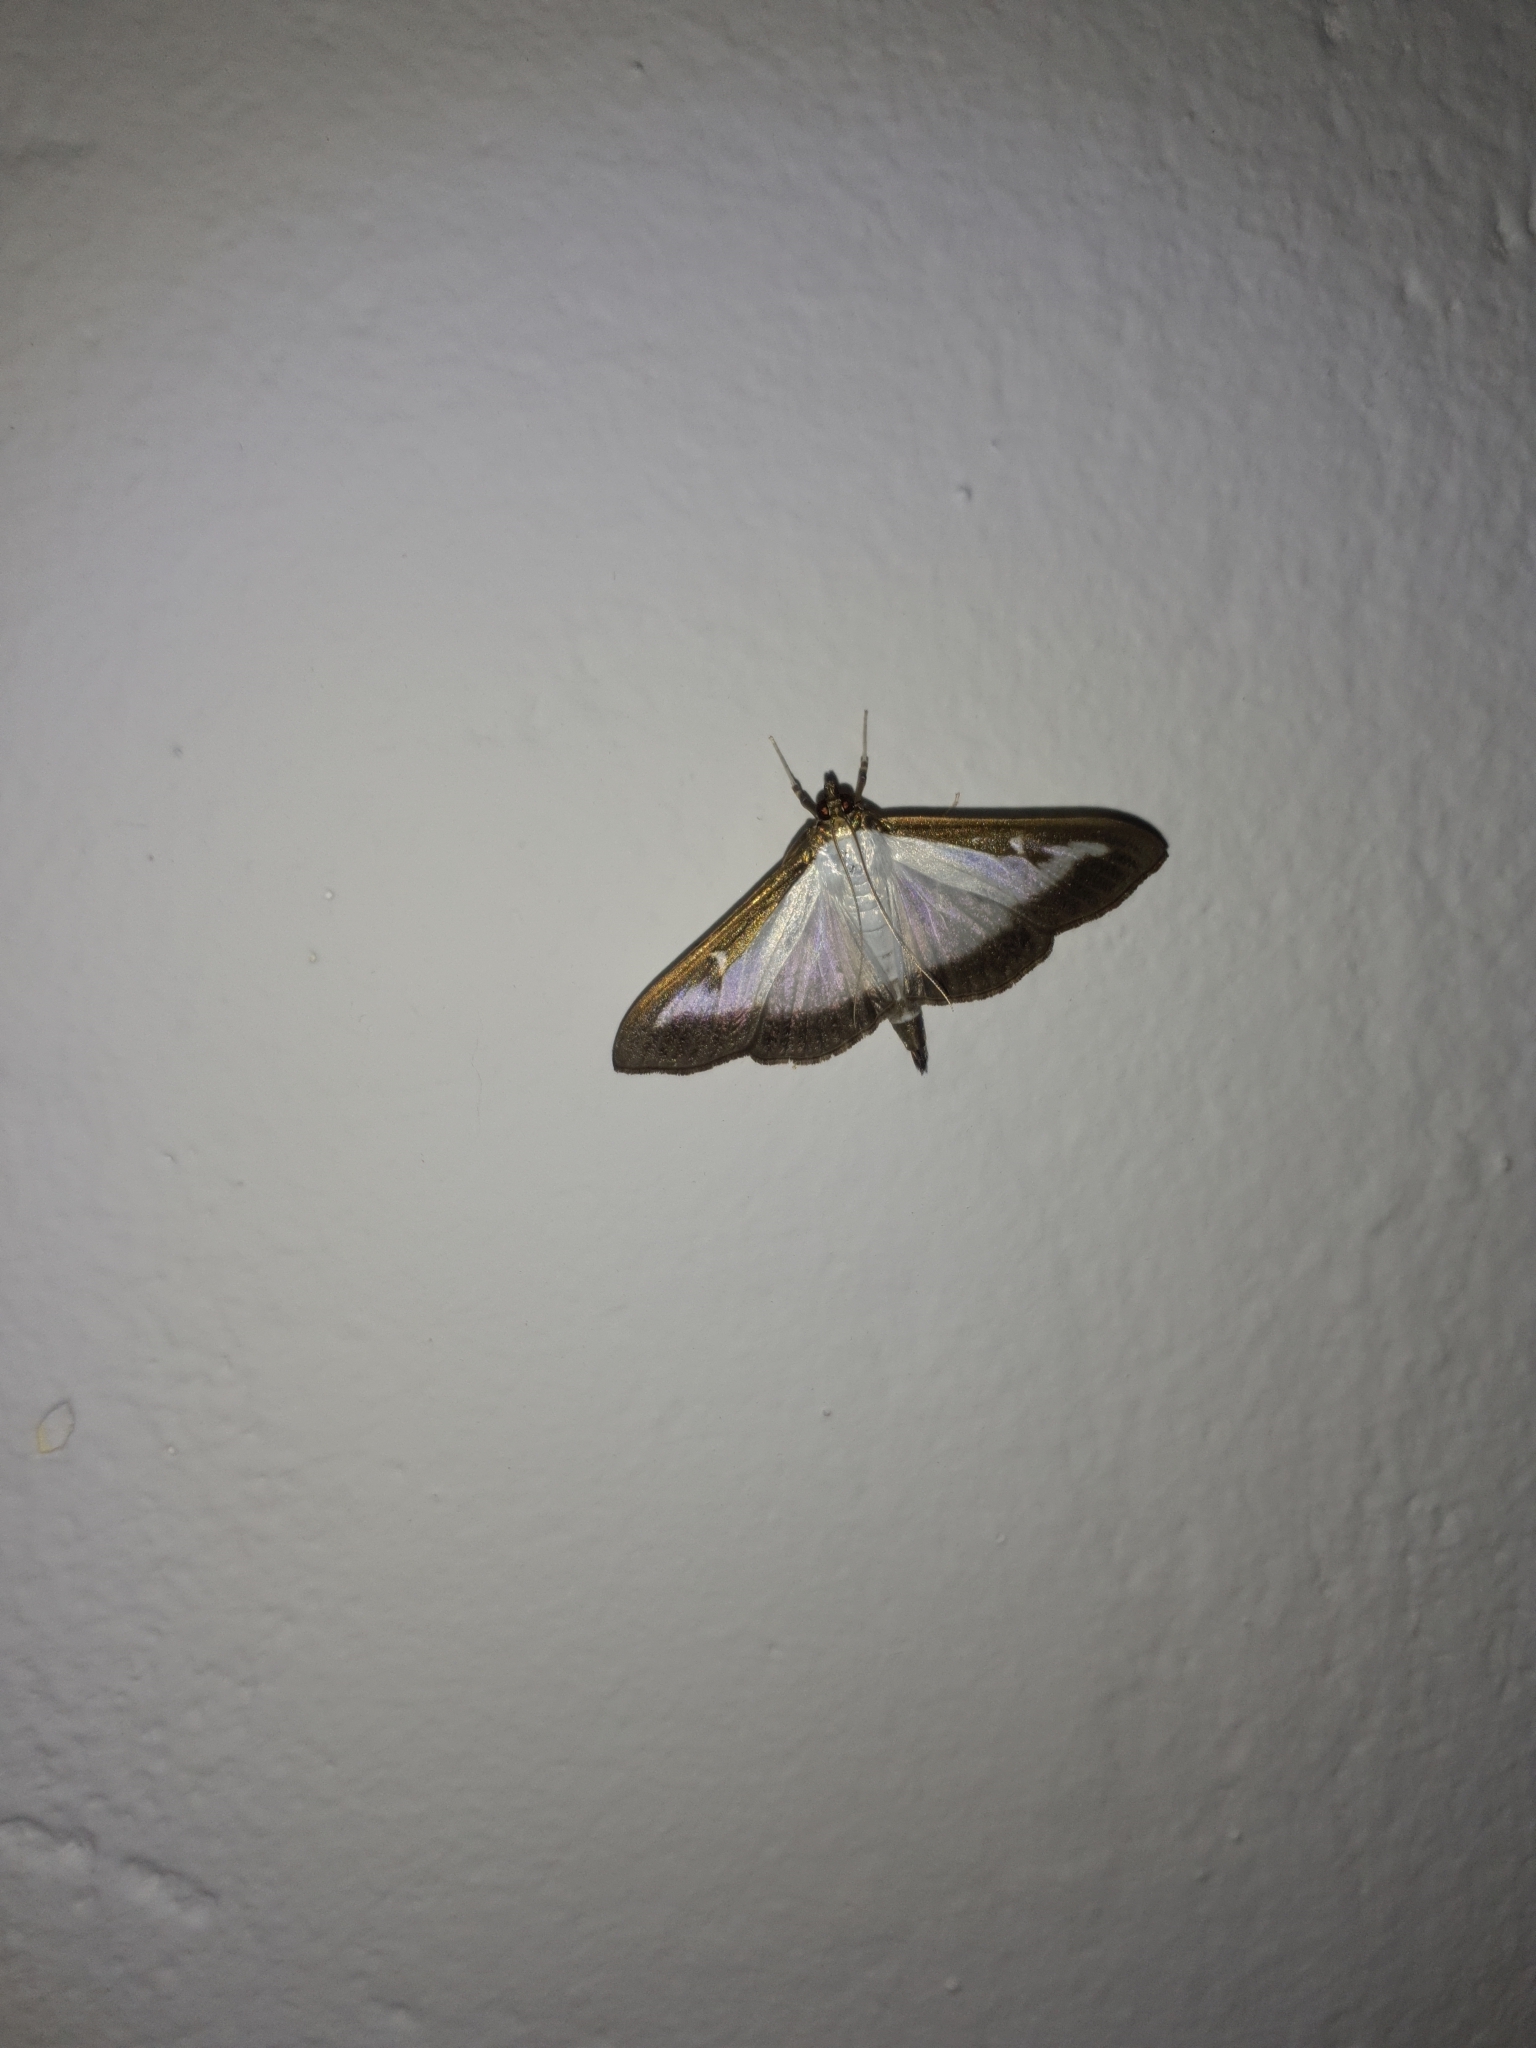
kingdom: Animalia
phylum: Arthropoda
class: Insecta
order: Lepidoptera
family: Crambidae
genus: Cydalima
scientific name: Cydalima perspectalis
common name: Box tree moth
